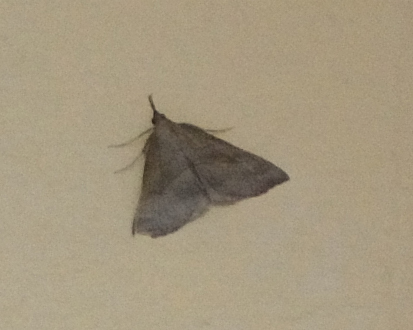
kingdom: Animalia
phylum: Arthropoda
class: Insecta
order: Lepidoptera
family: Erebidae
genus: Hypena
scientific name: Hypena proboscidalis
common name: Snout
